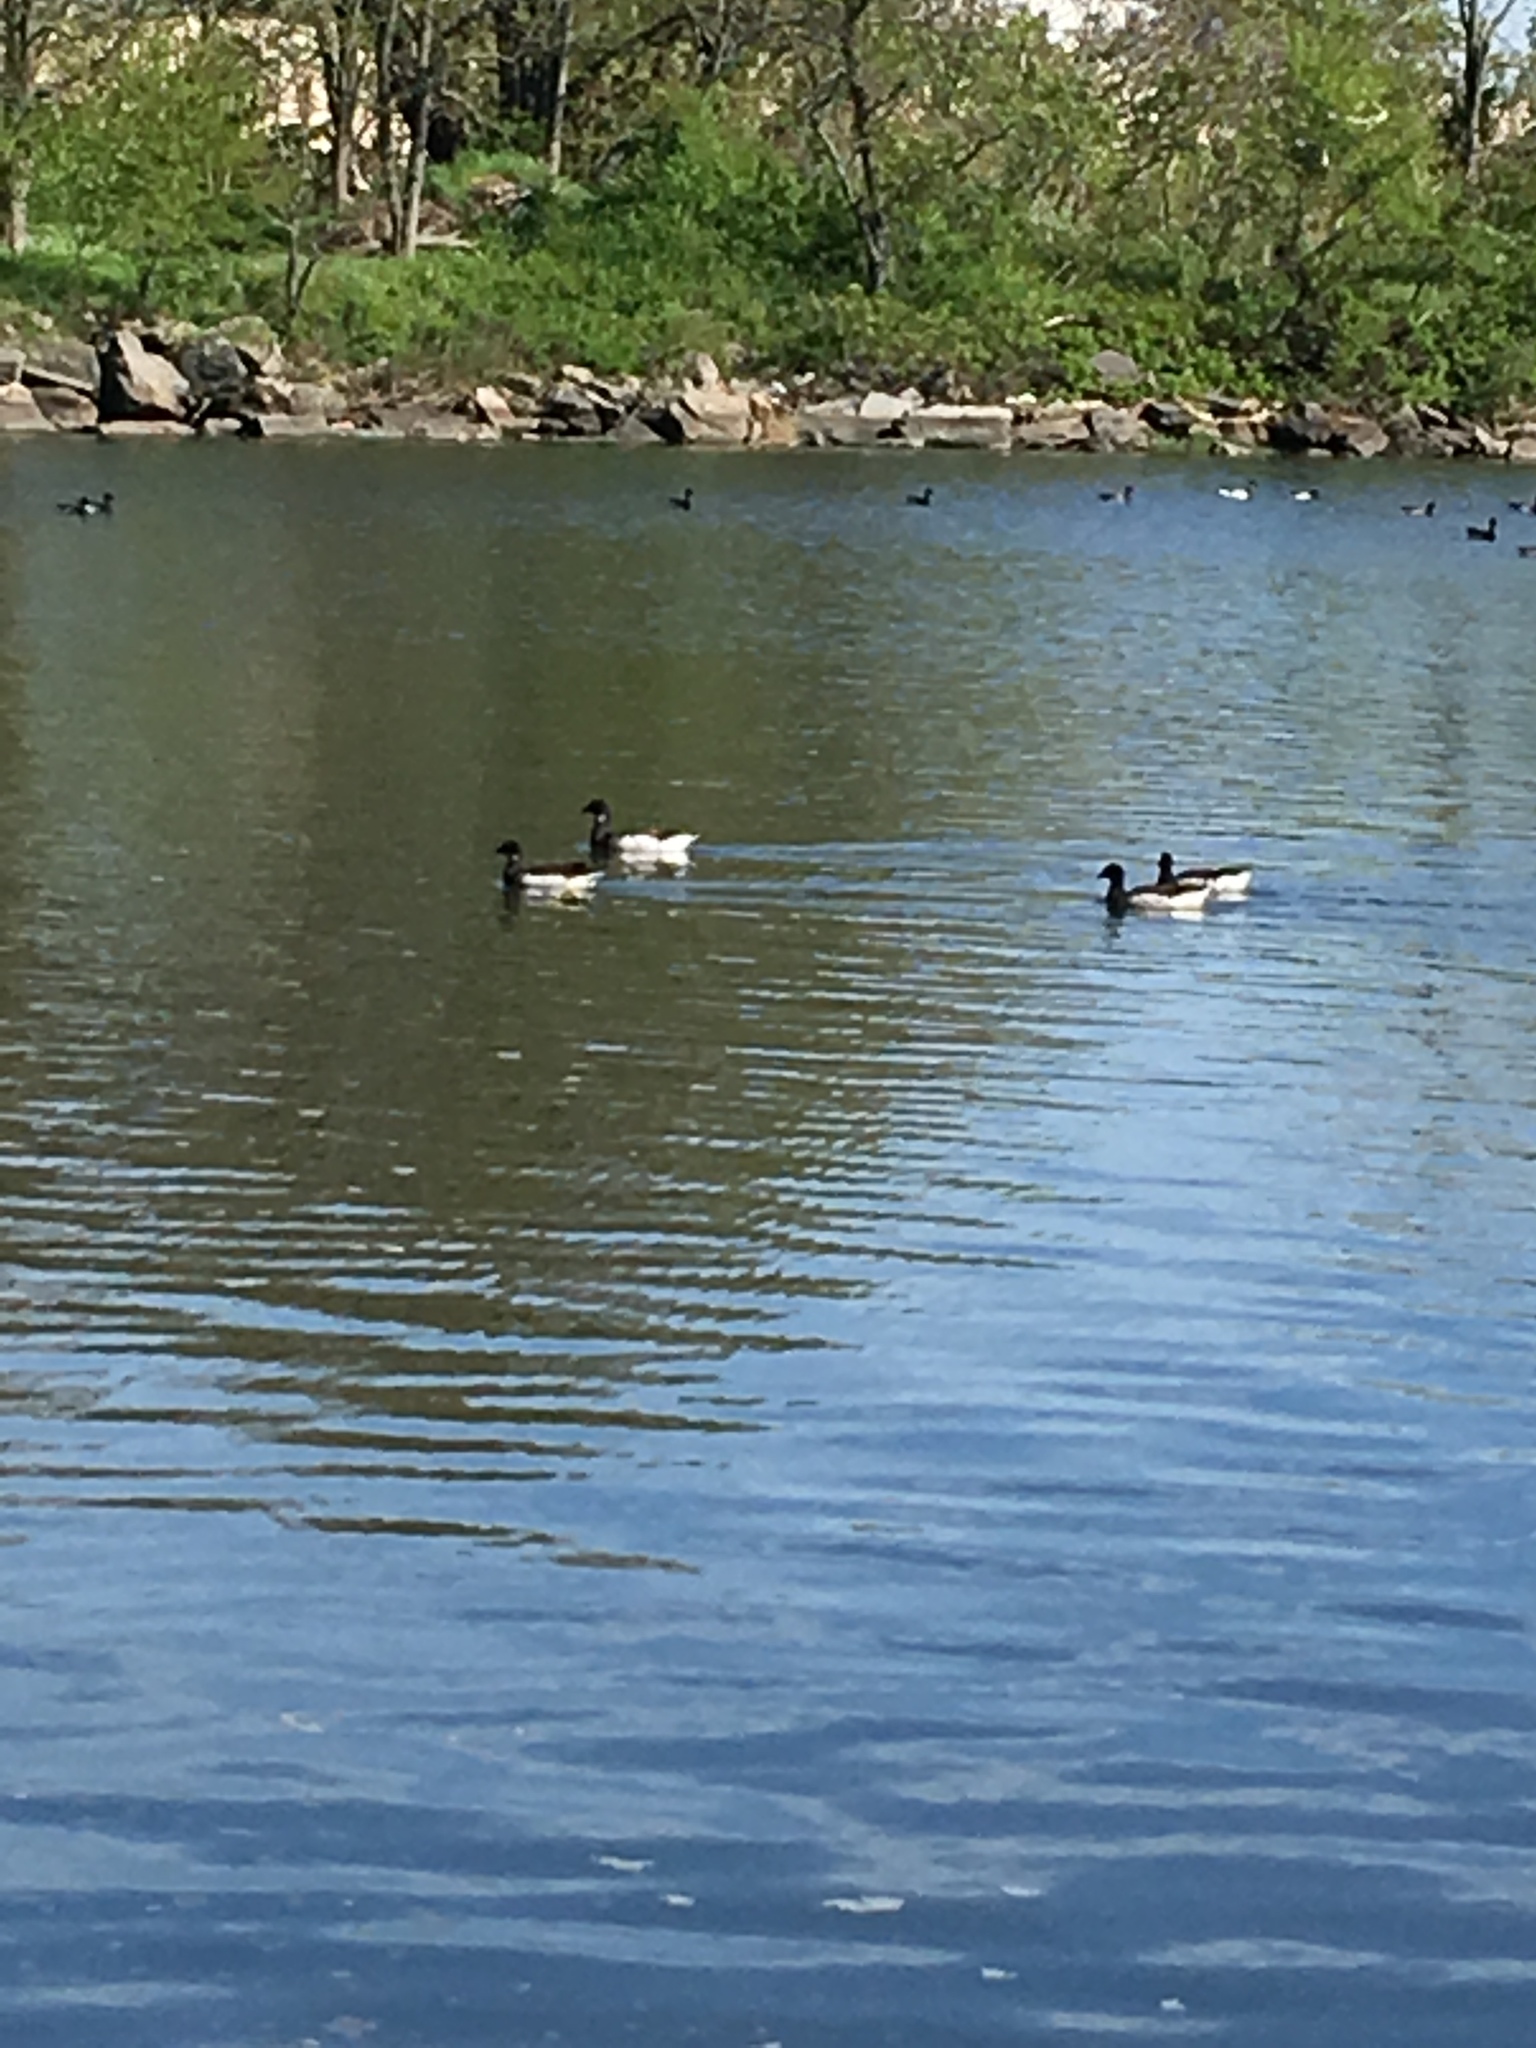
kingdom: Animalia
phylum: Chordata
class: Aves
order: Anseriformes
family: Anatidae
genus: Branta
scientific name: Branta bernicla
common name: Brant goose
